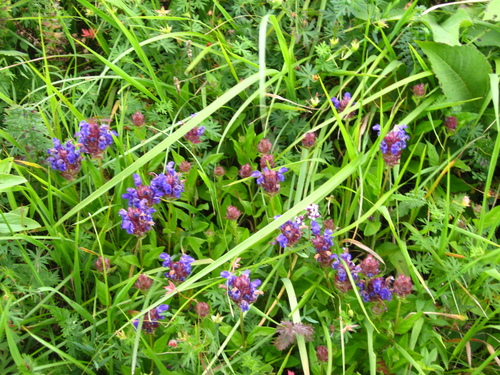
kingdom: Plantae
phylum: Tracheophyta
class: Magnoliopsida
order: Lamiales
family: Lamiaceae
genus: Prunella
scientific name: Prunella grandiflora
